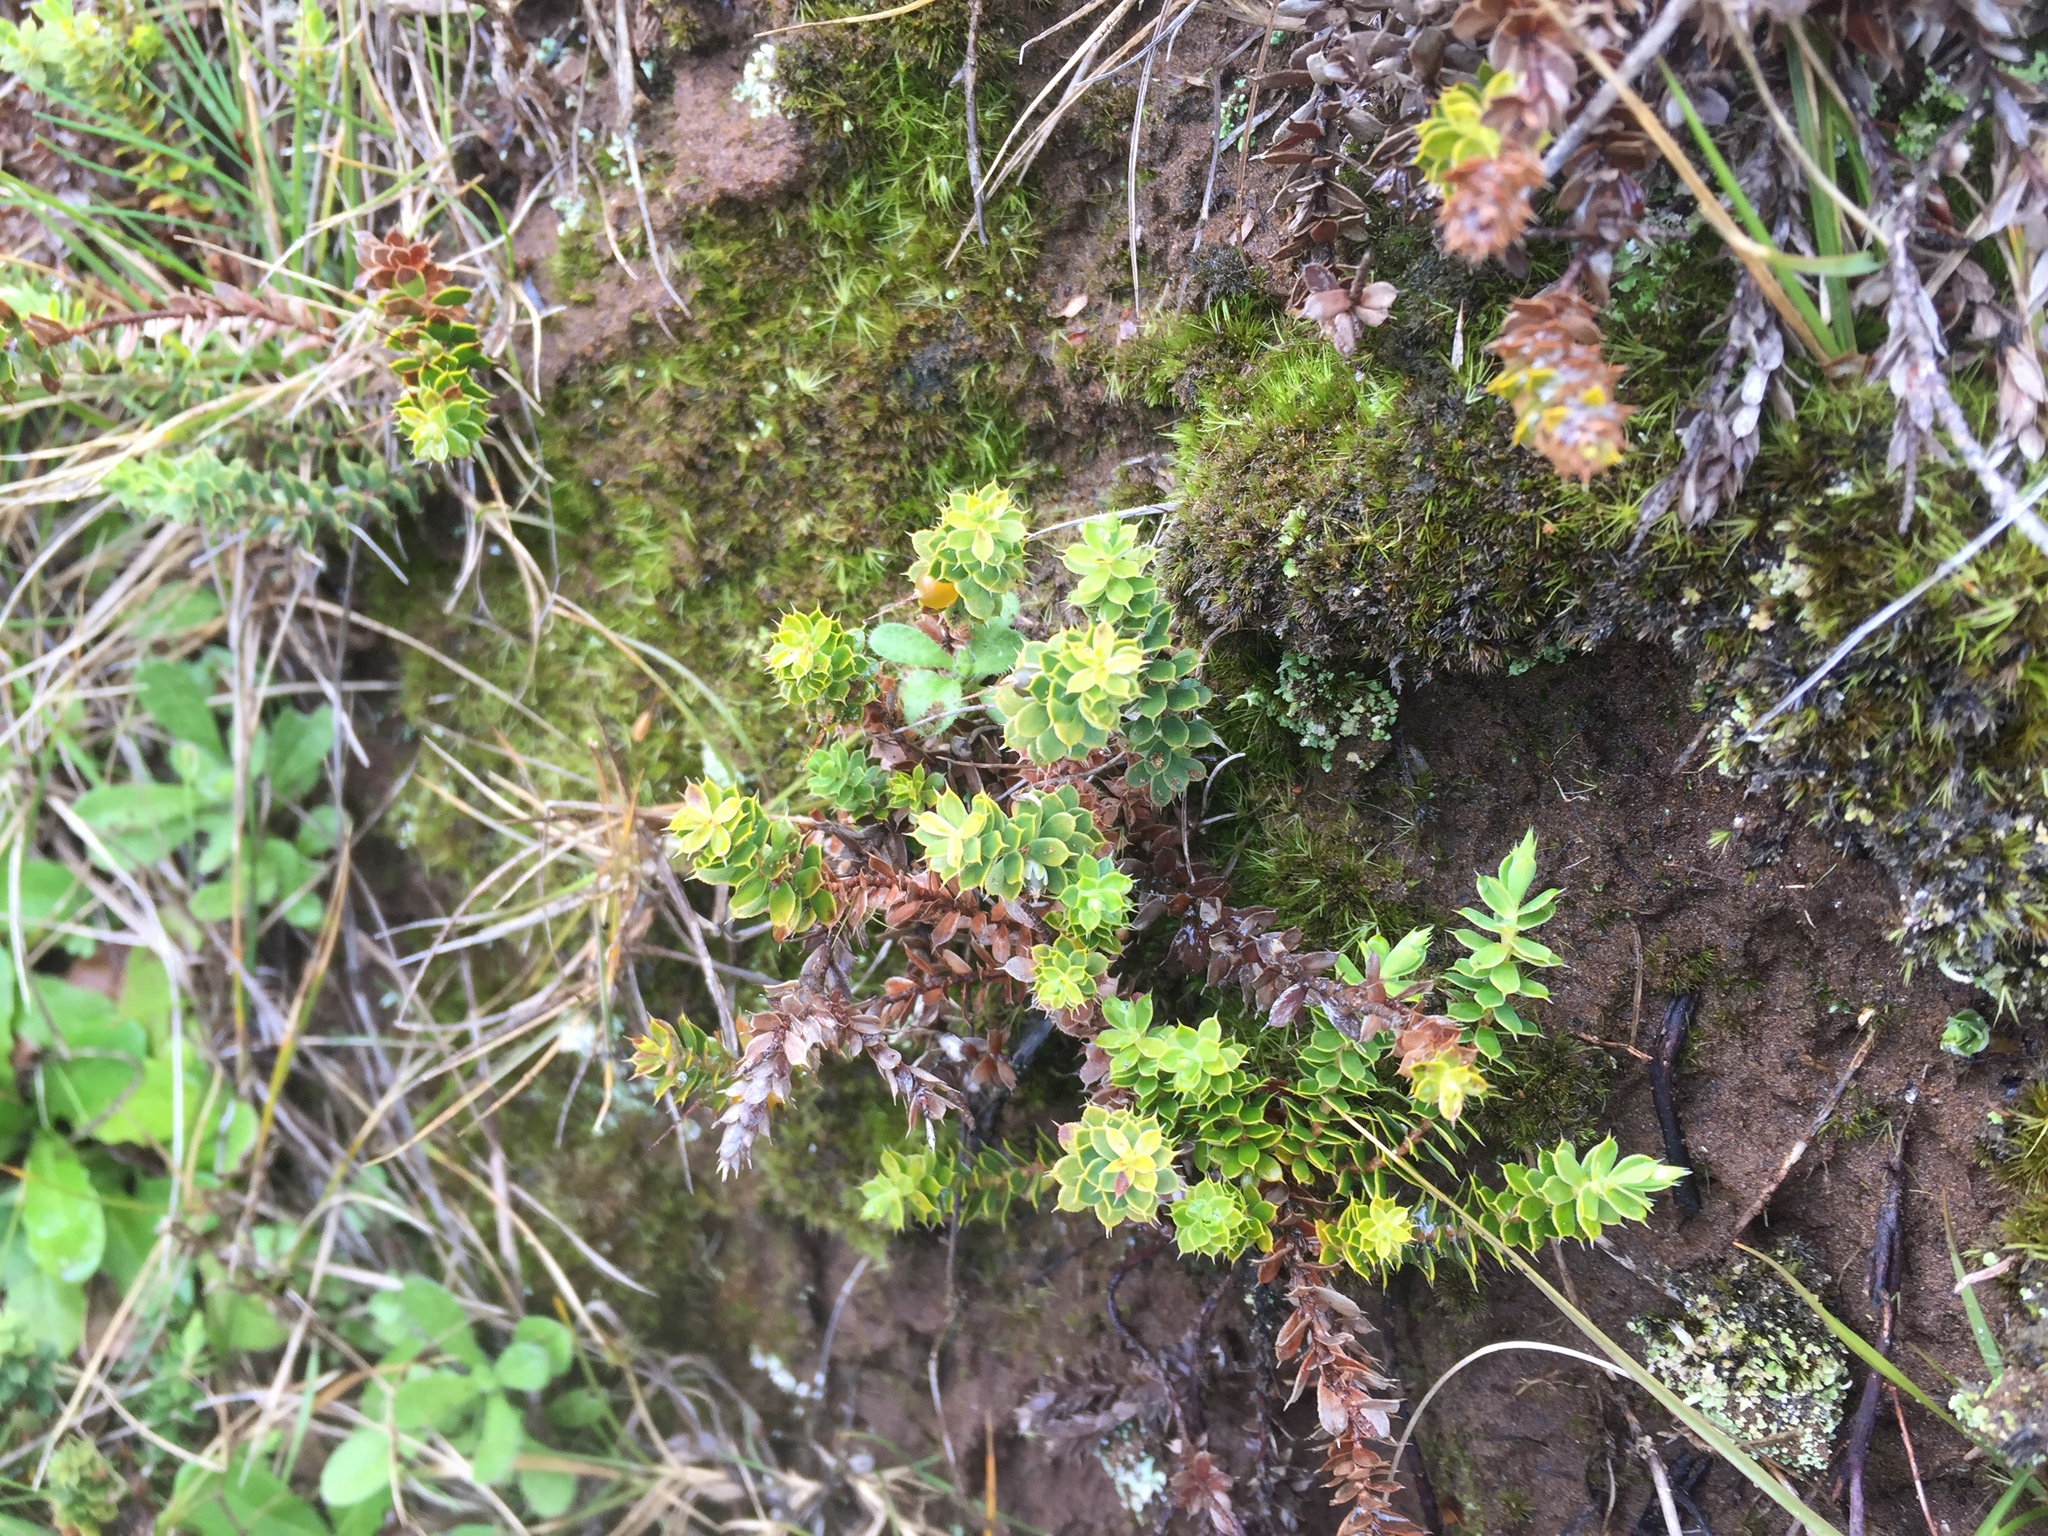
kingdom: Plantae
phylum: Tracheophyta
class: Magnoliopsida
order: Ericales
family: Ericaceae
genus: Styphelia
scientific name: Styphelia nesophila
